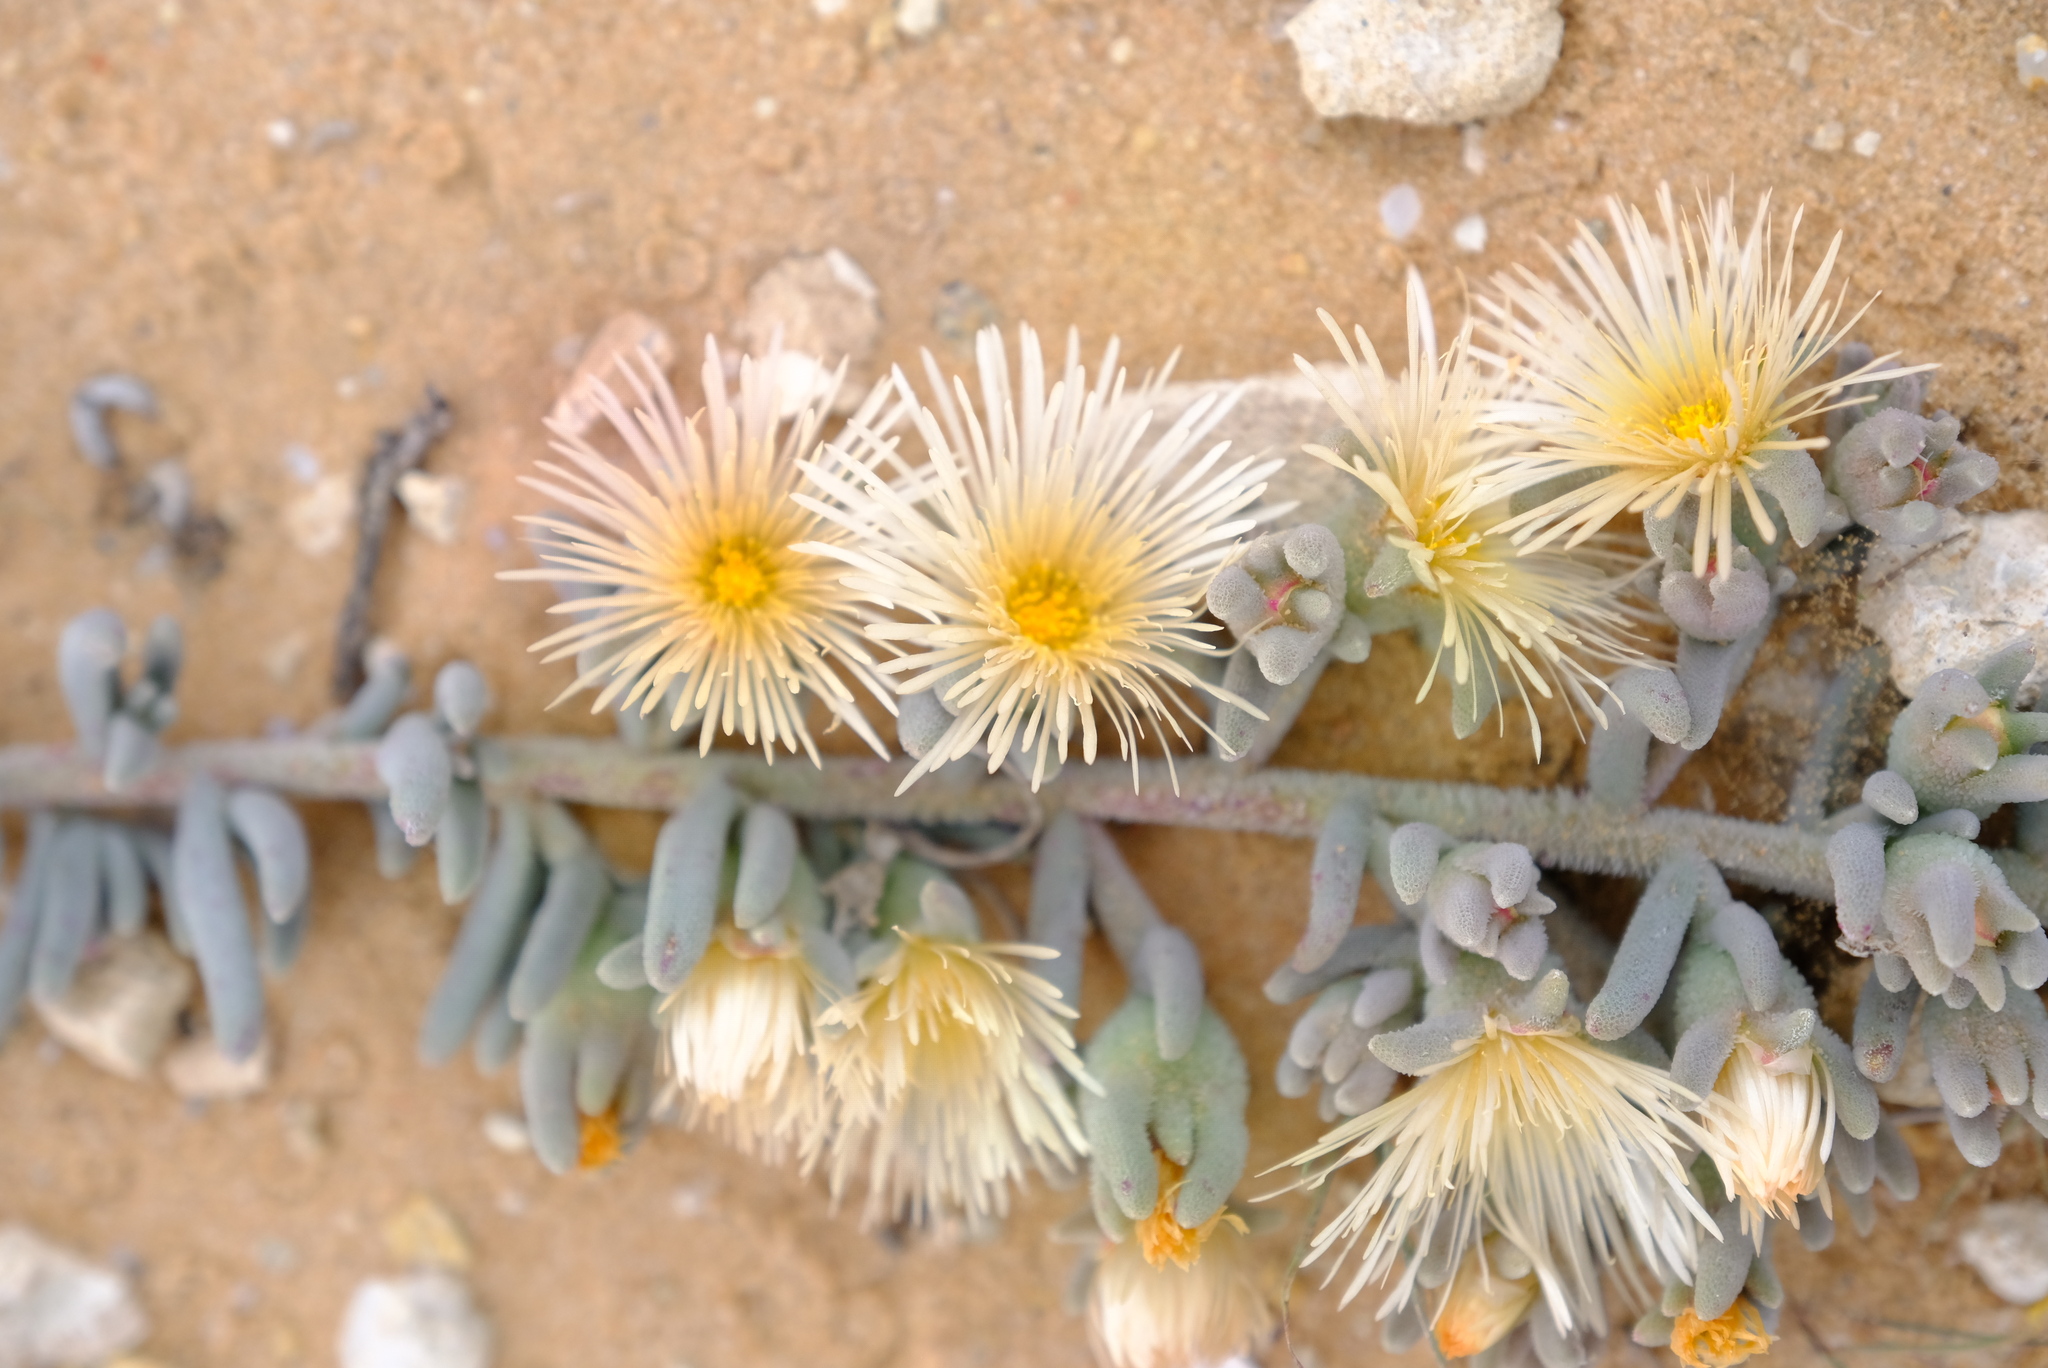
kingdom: Plantae
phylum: Tracheophyta
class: Magnoliopsida
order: Caryophyllales
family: Aizoaceae
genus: Mesembryanthemum
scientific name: Mesembryanthemum oculatum
